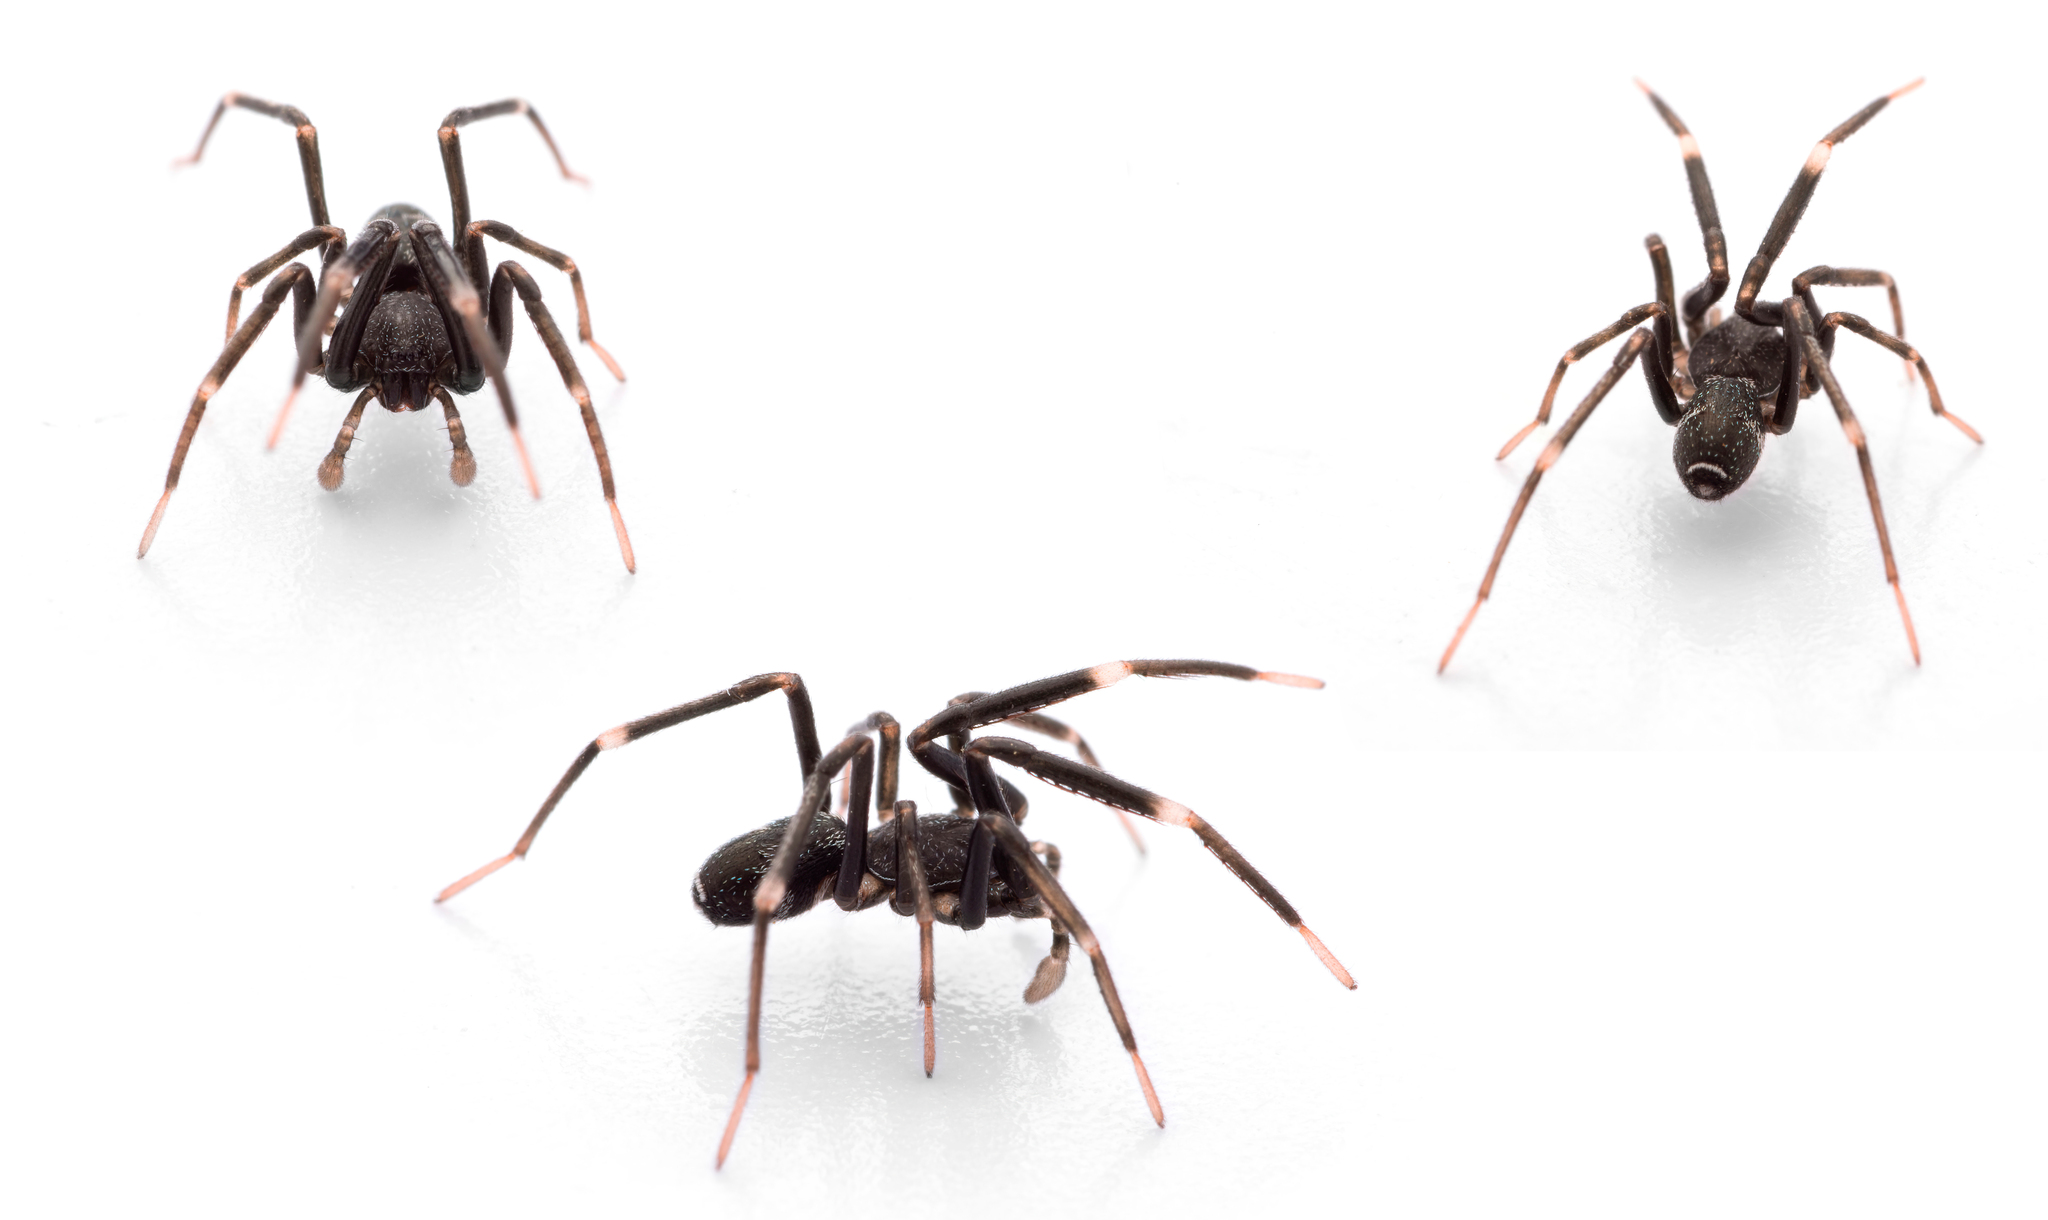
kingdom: Animalia
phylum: Arthropoda
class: Arachnida
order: Araneae
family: Phrurolithidae
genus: Liophrurillus
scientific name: Liophrurillus flavitarsis
